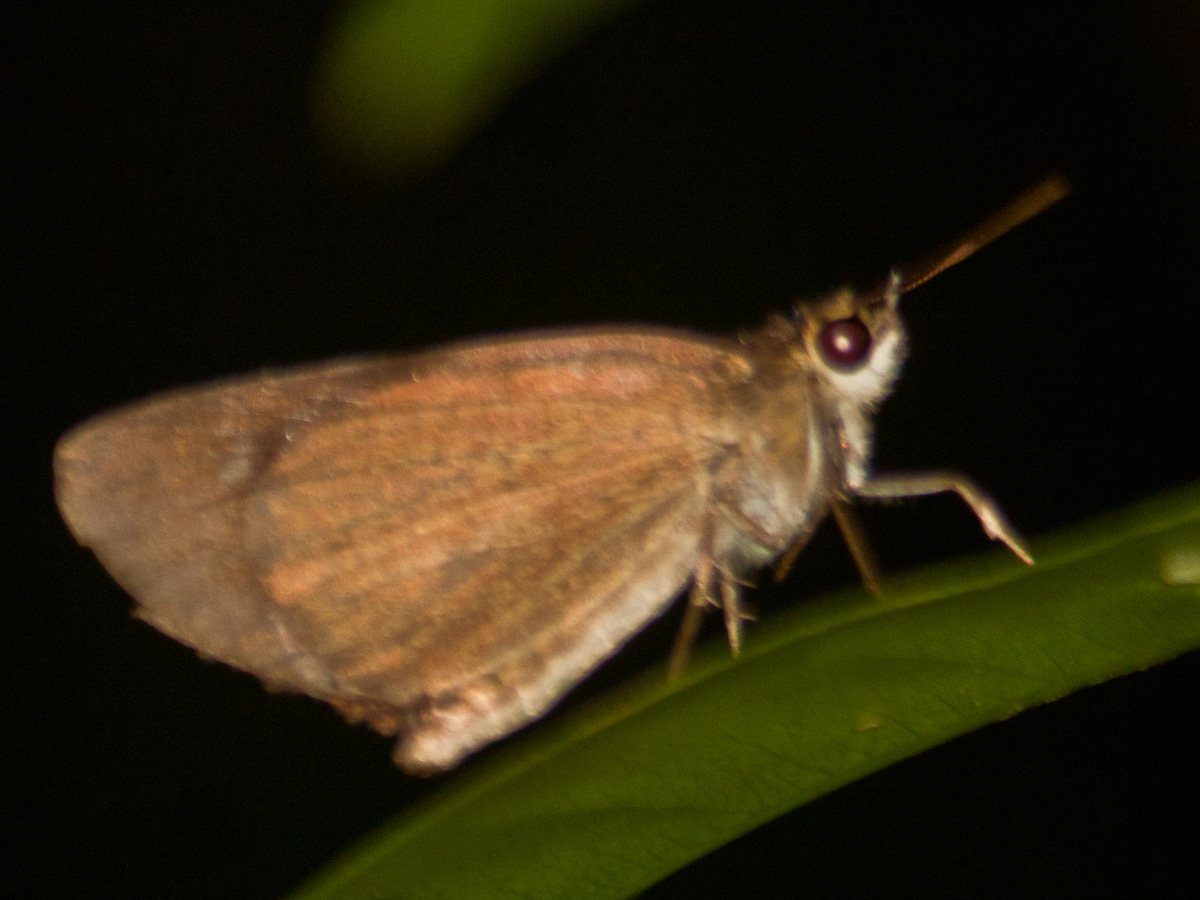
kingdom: Animalia
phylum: Arthropoda
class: Insecta
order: Lepidoptera
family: Hesperiidae
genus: Suada
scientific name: Suada swerga
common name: Grass bob
